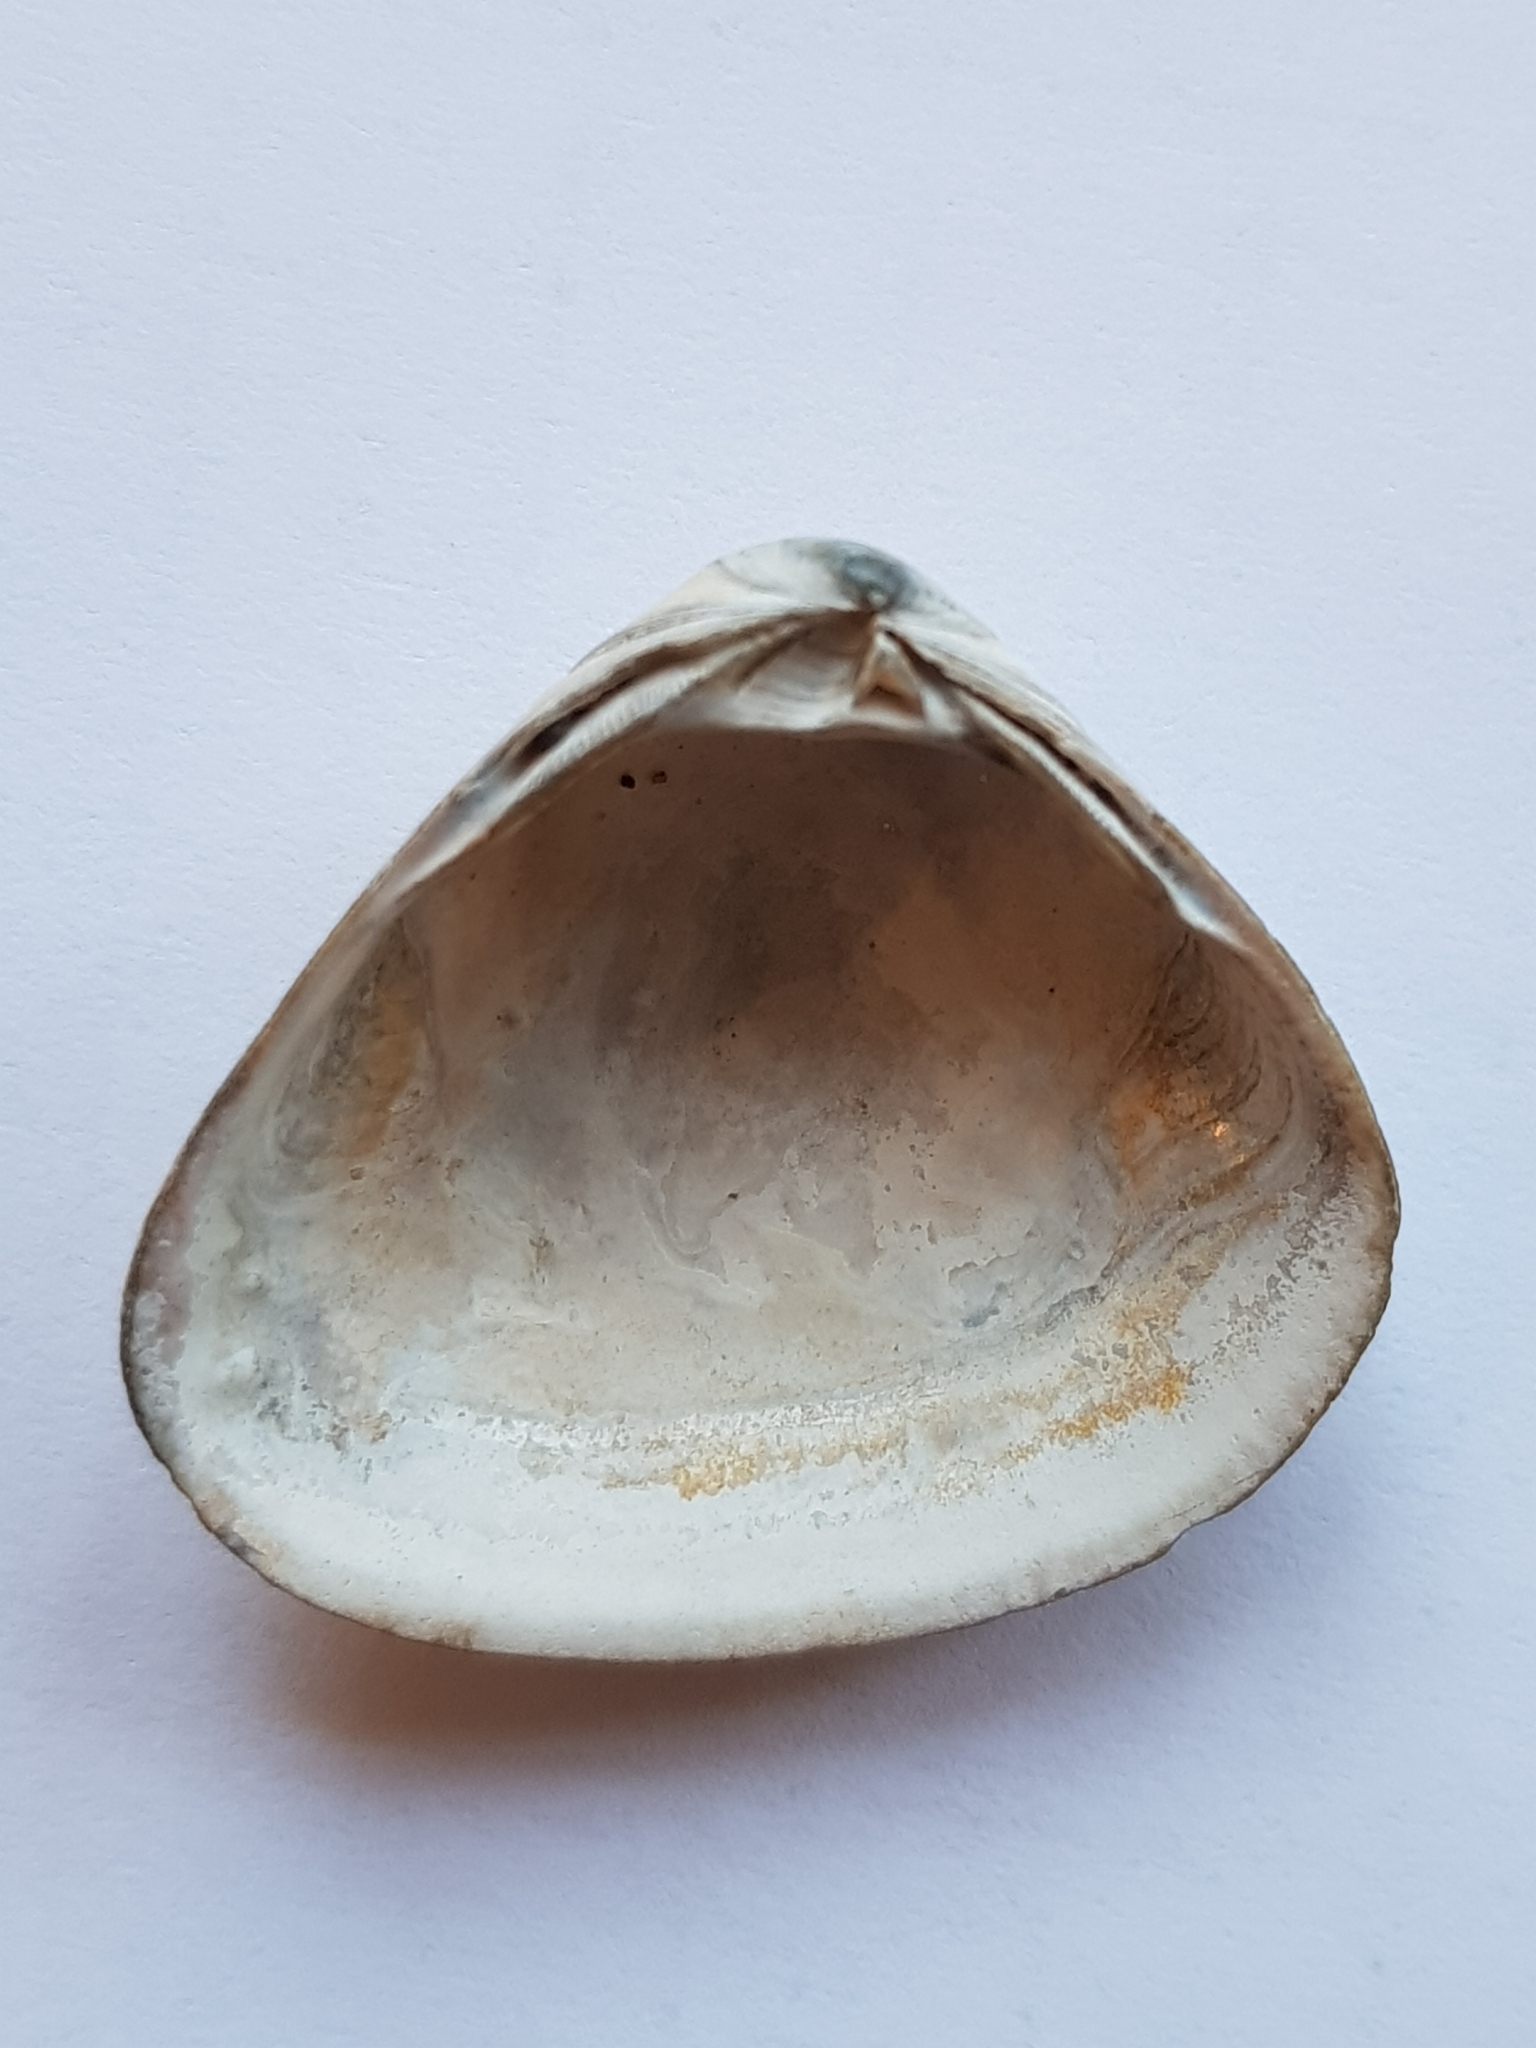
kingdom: Animalia
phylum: Mollusca
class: Bivalvia
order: Venerida
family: Mactridae
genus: Spisula
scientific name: Spisula subtruncata
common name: Cut trough shell
